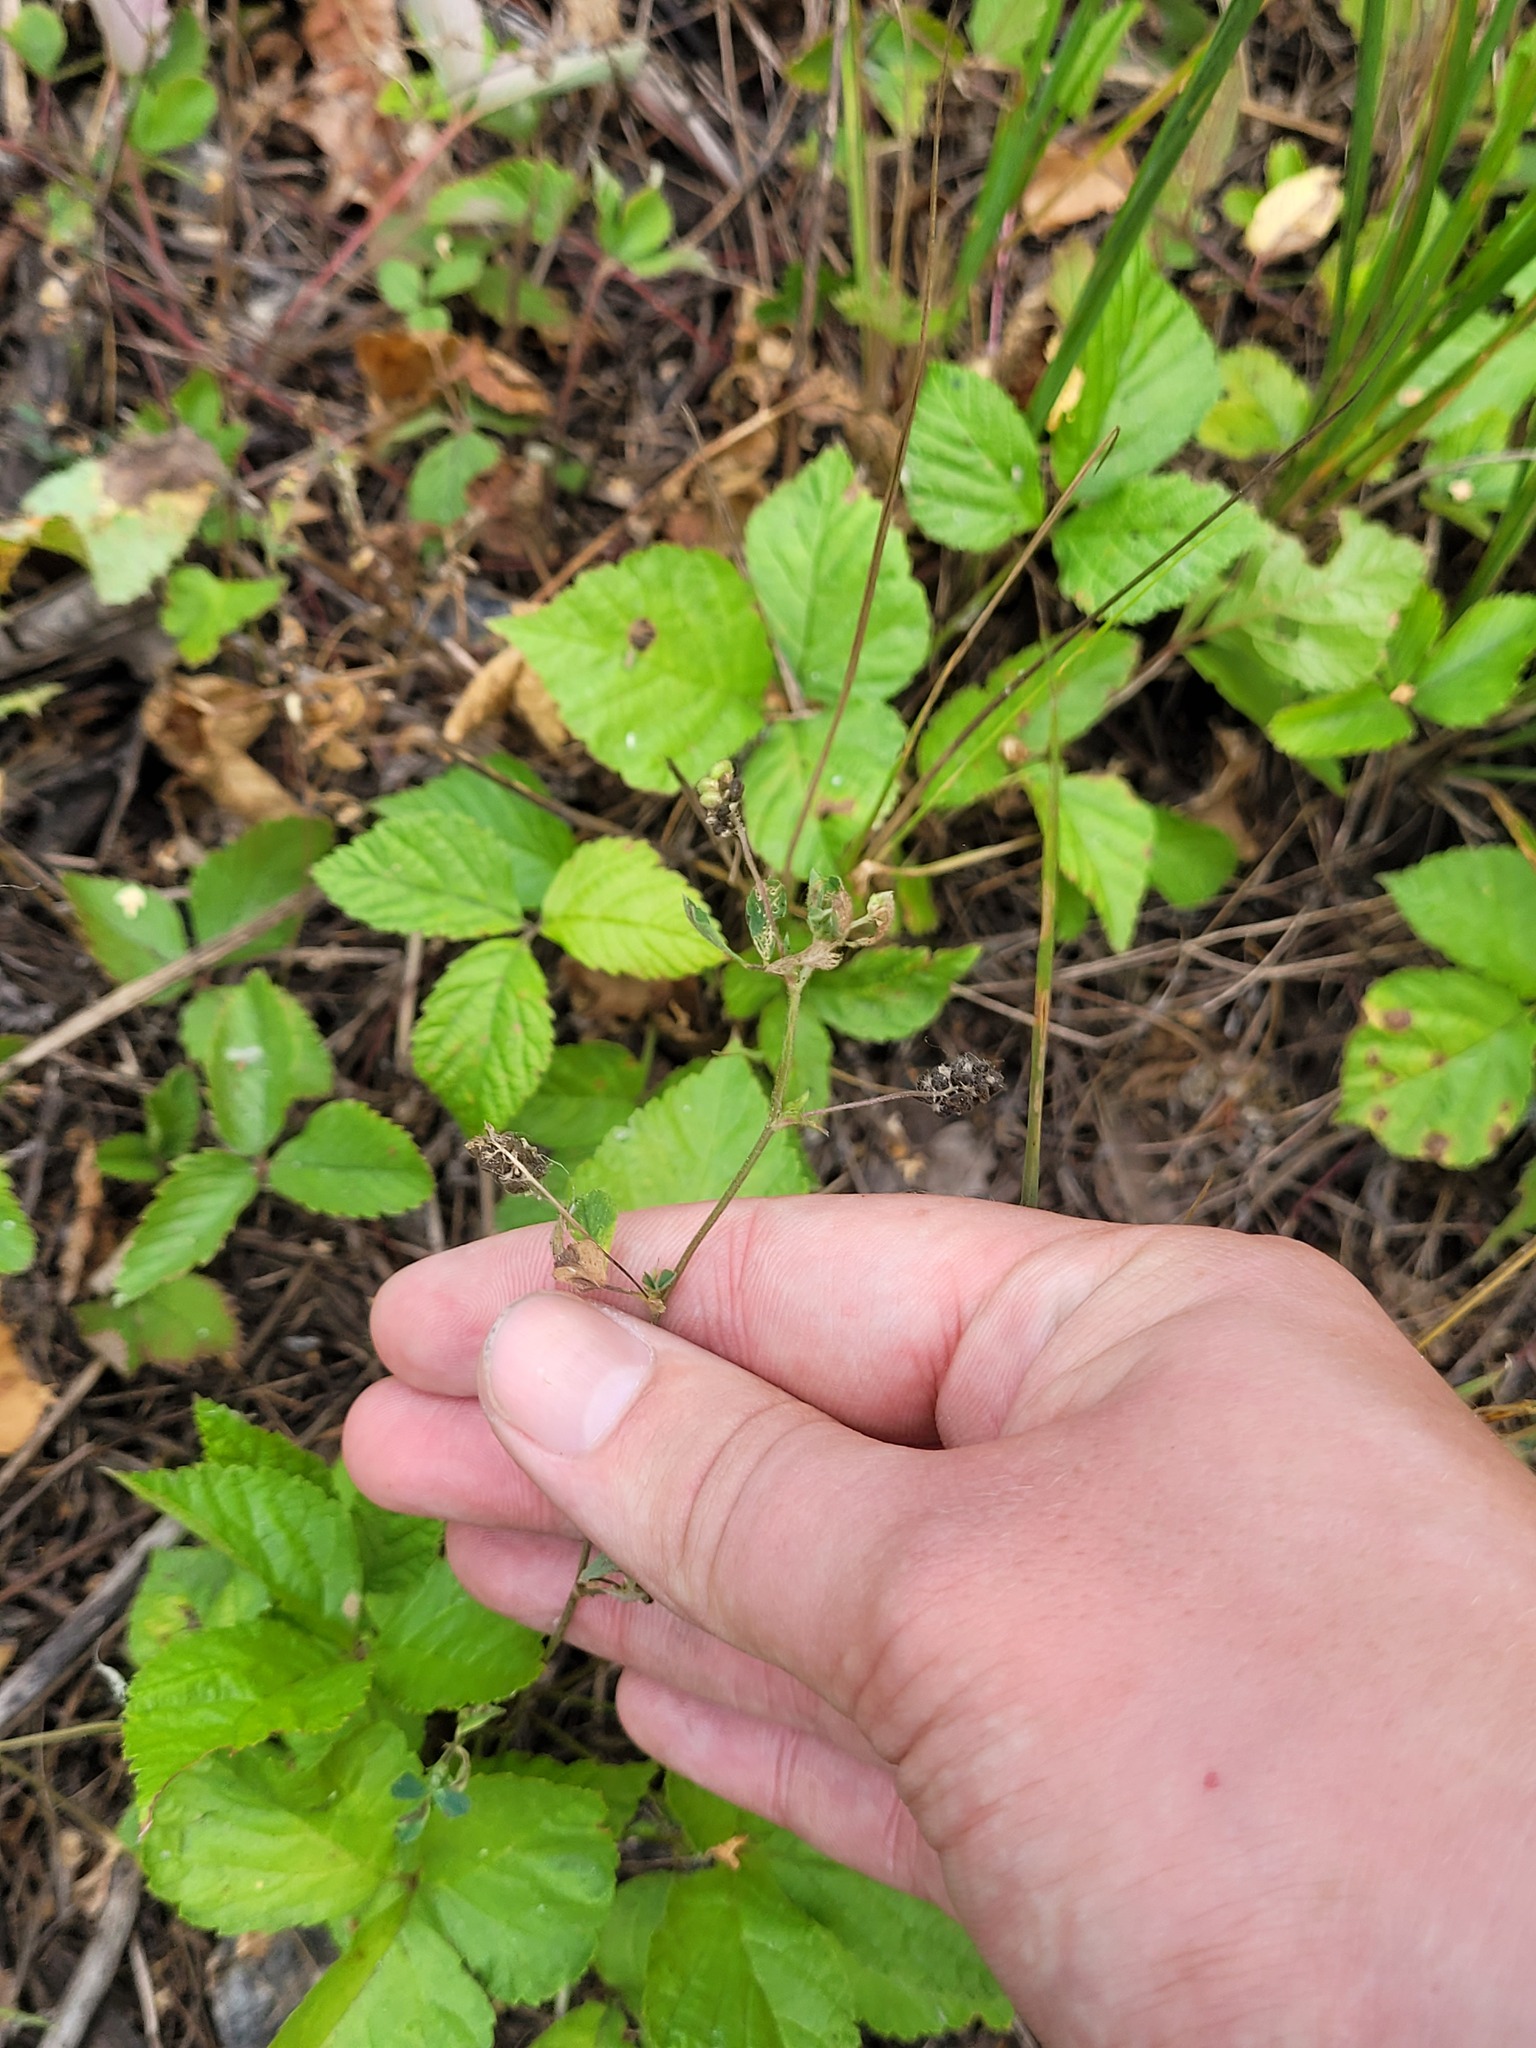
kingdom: Plantae
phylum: Tracheophyta
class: Magnoliopsida
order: Fabales
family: Fabaceae
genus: Medicago
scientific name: Medicago lupulina
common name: Black medick
